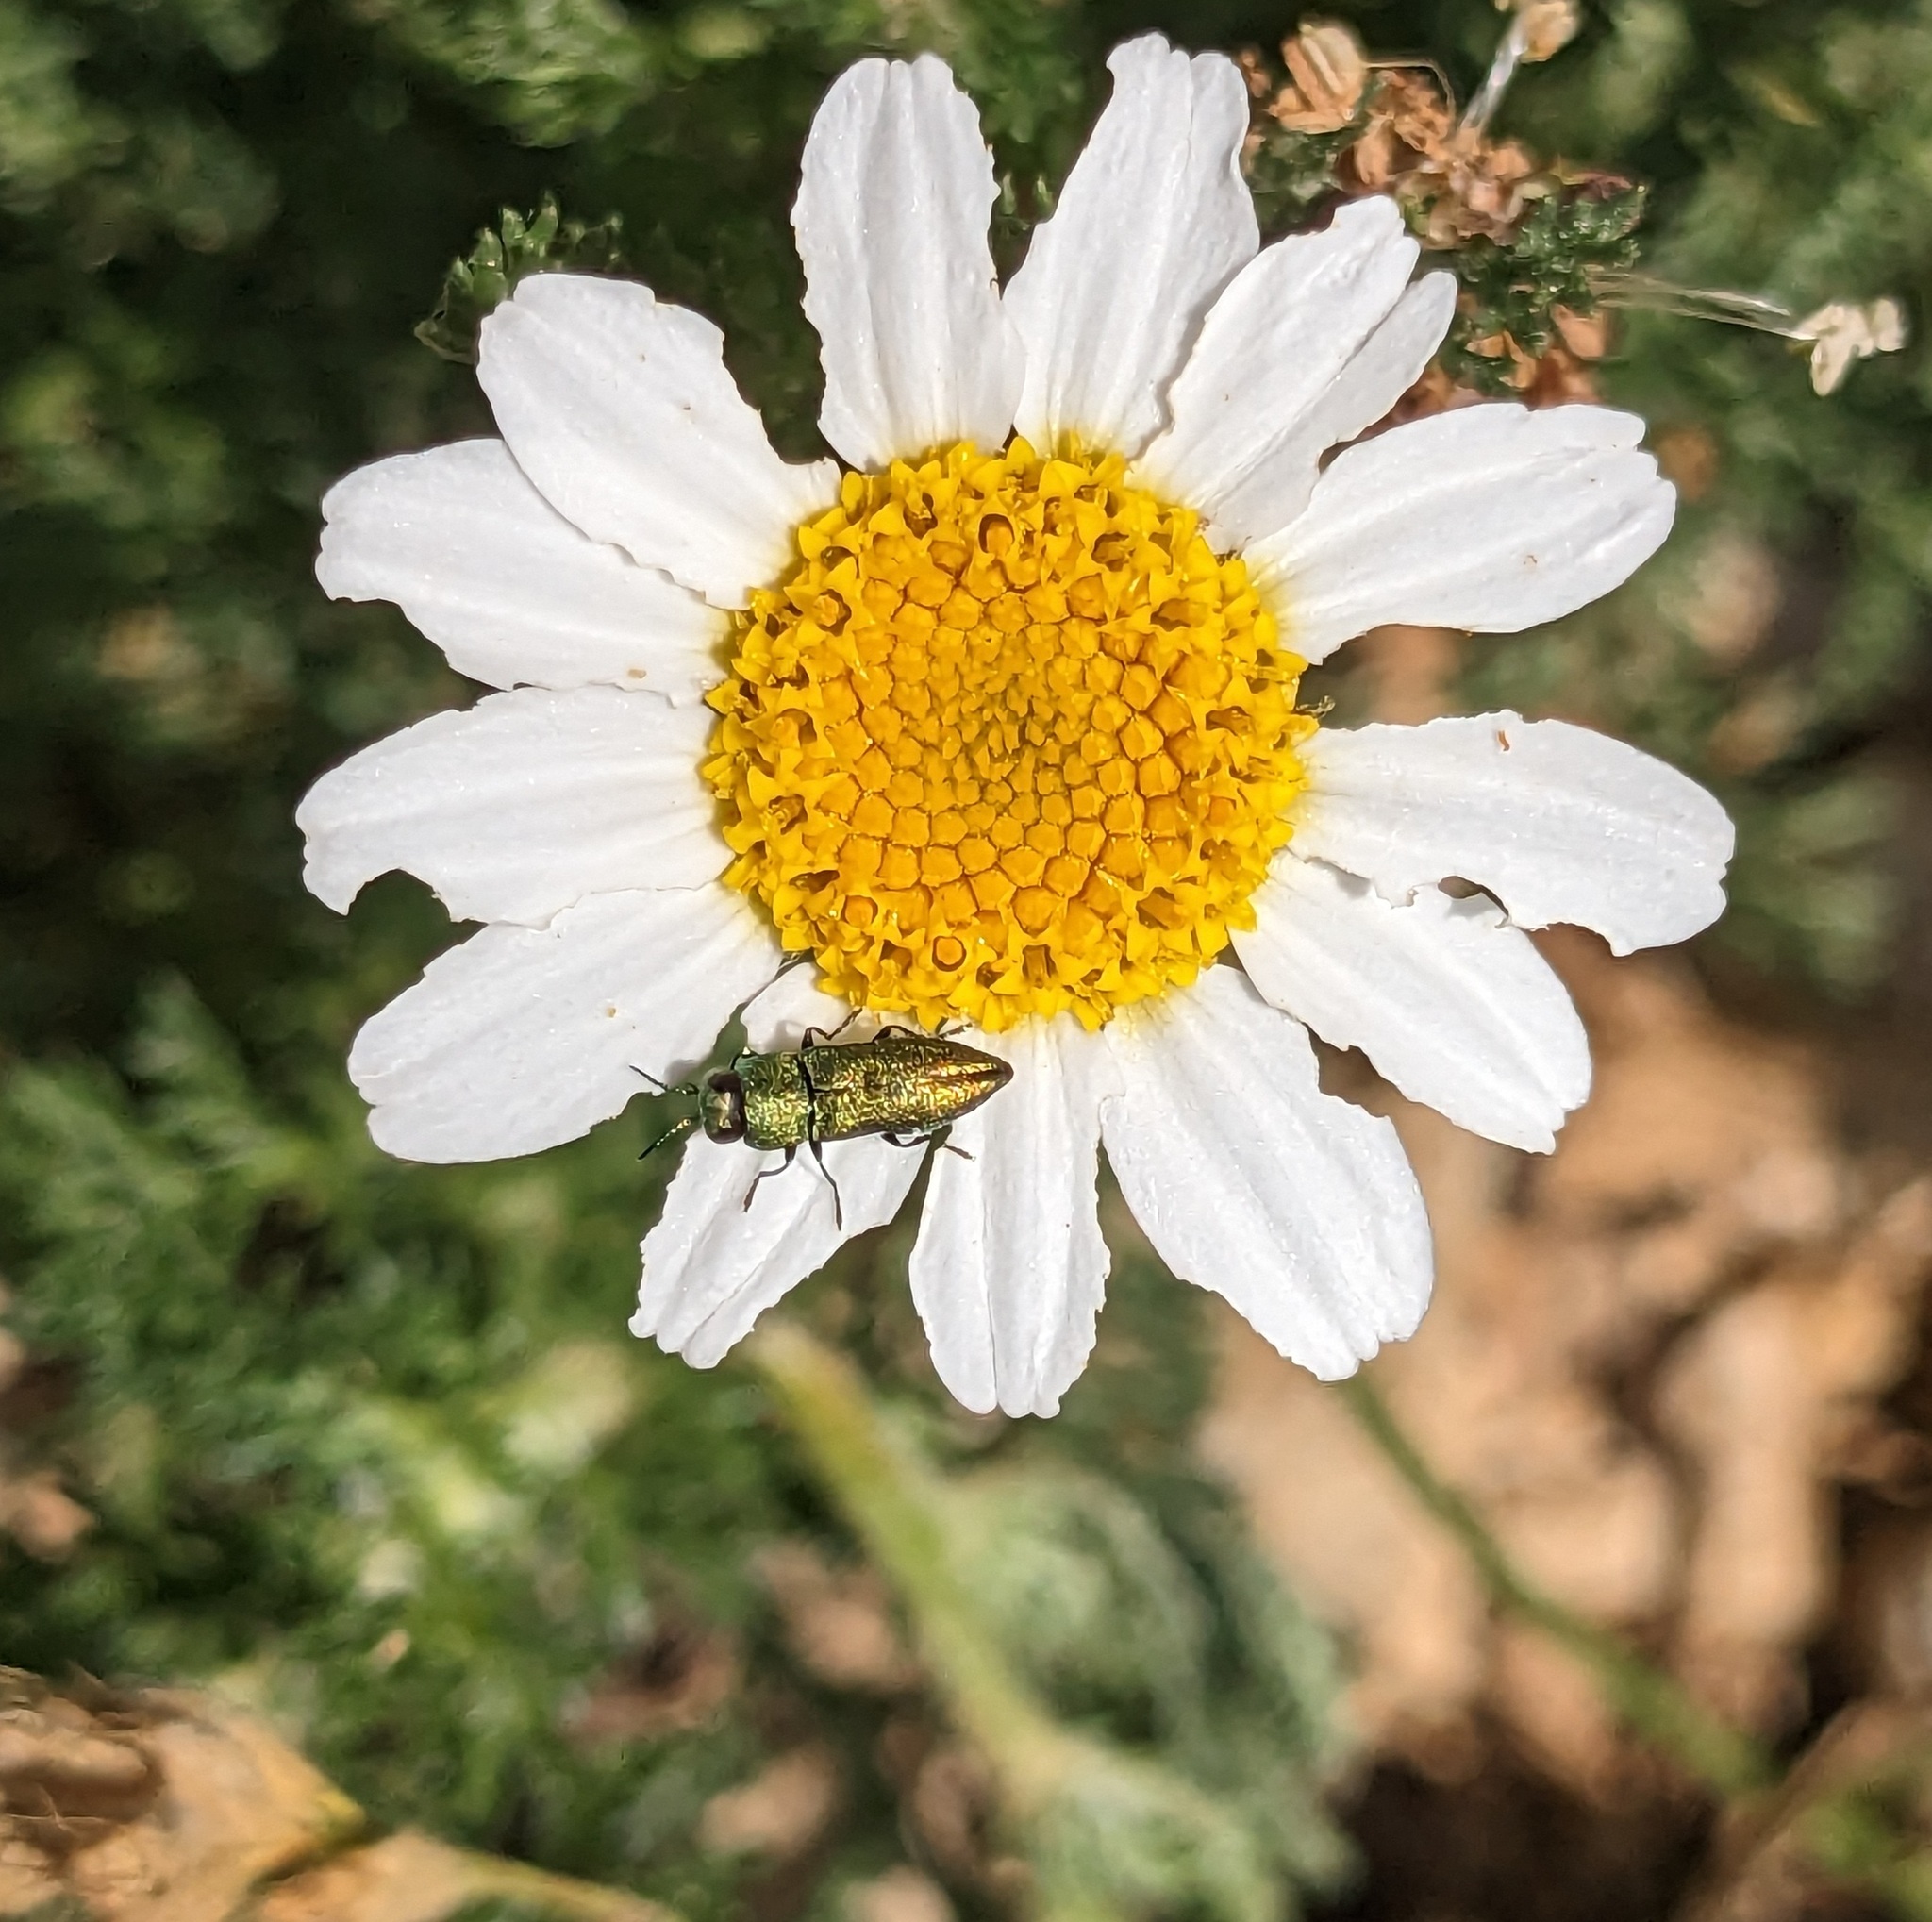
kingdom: Animalia
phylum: Arthropoda
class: Insecta
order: Coleoptera
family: Buprestidae
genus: Anthaxia
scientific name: Anthaxia millefolii
